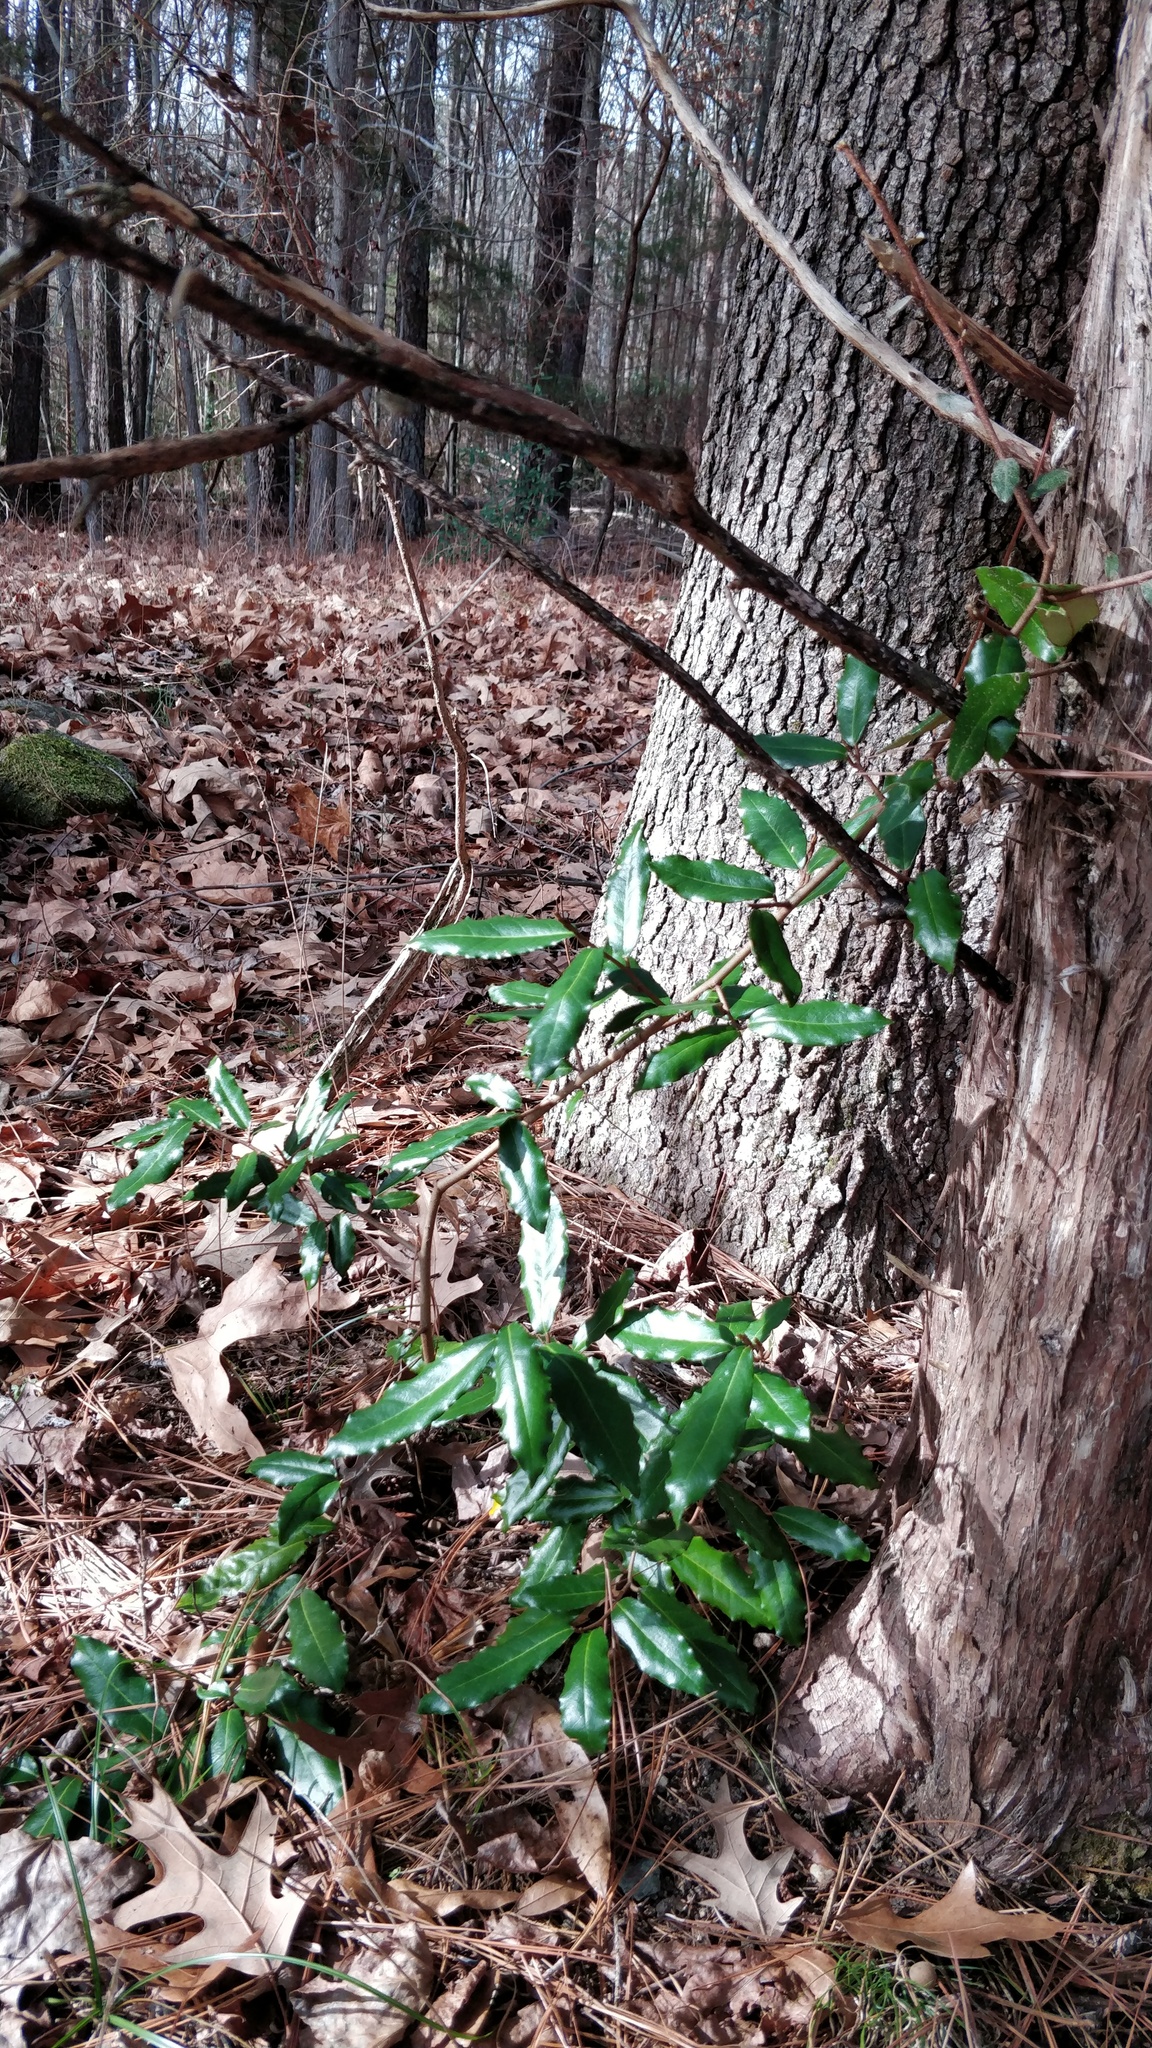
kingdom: Plantae
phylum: Tracheophyta
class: Magnoliopsida
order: Rosales
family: Elaeagnaceae
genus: Elaeagnus
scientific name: Elaeagnus pungens
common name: Spiny oleaster
